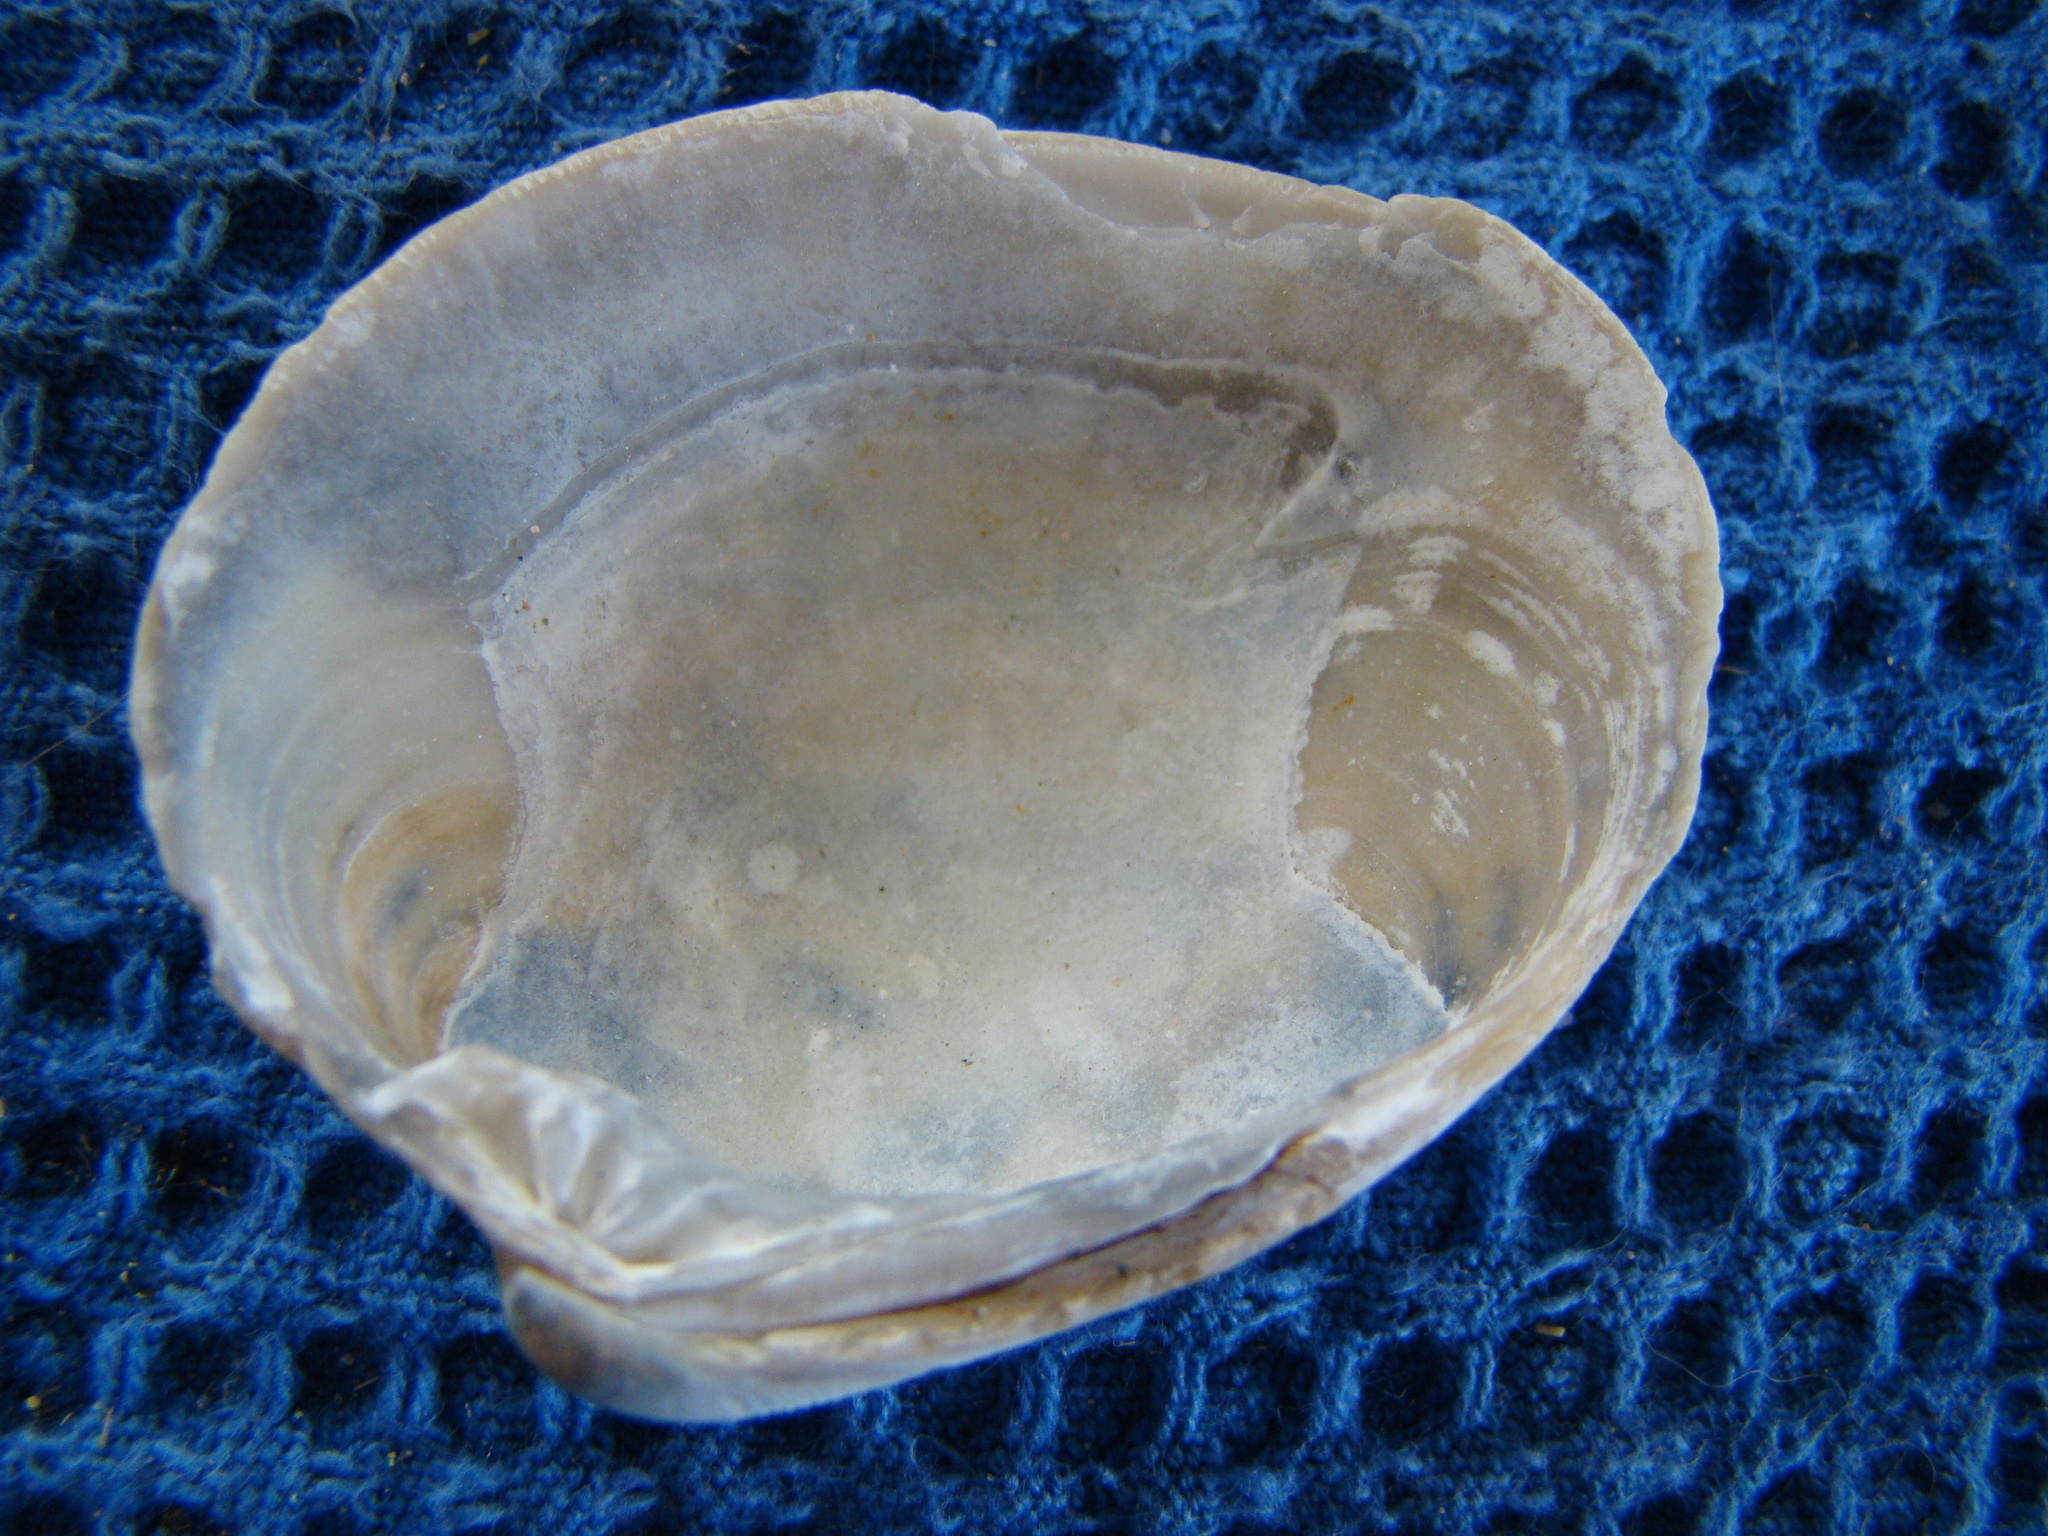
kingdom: Animalia
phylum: Mollusca
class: Bivalvia
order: Venerida
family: Veneridae
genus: Dosina
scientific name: Dosina mactracea
